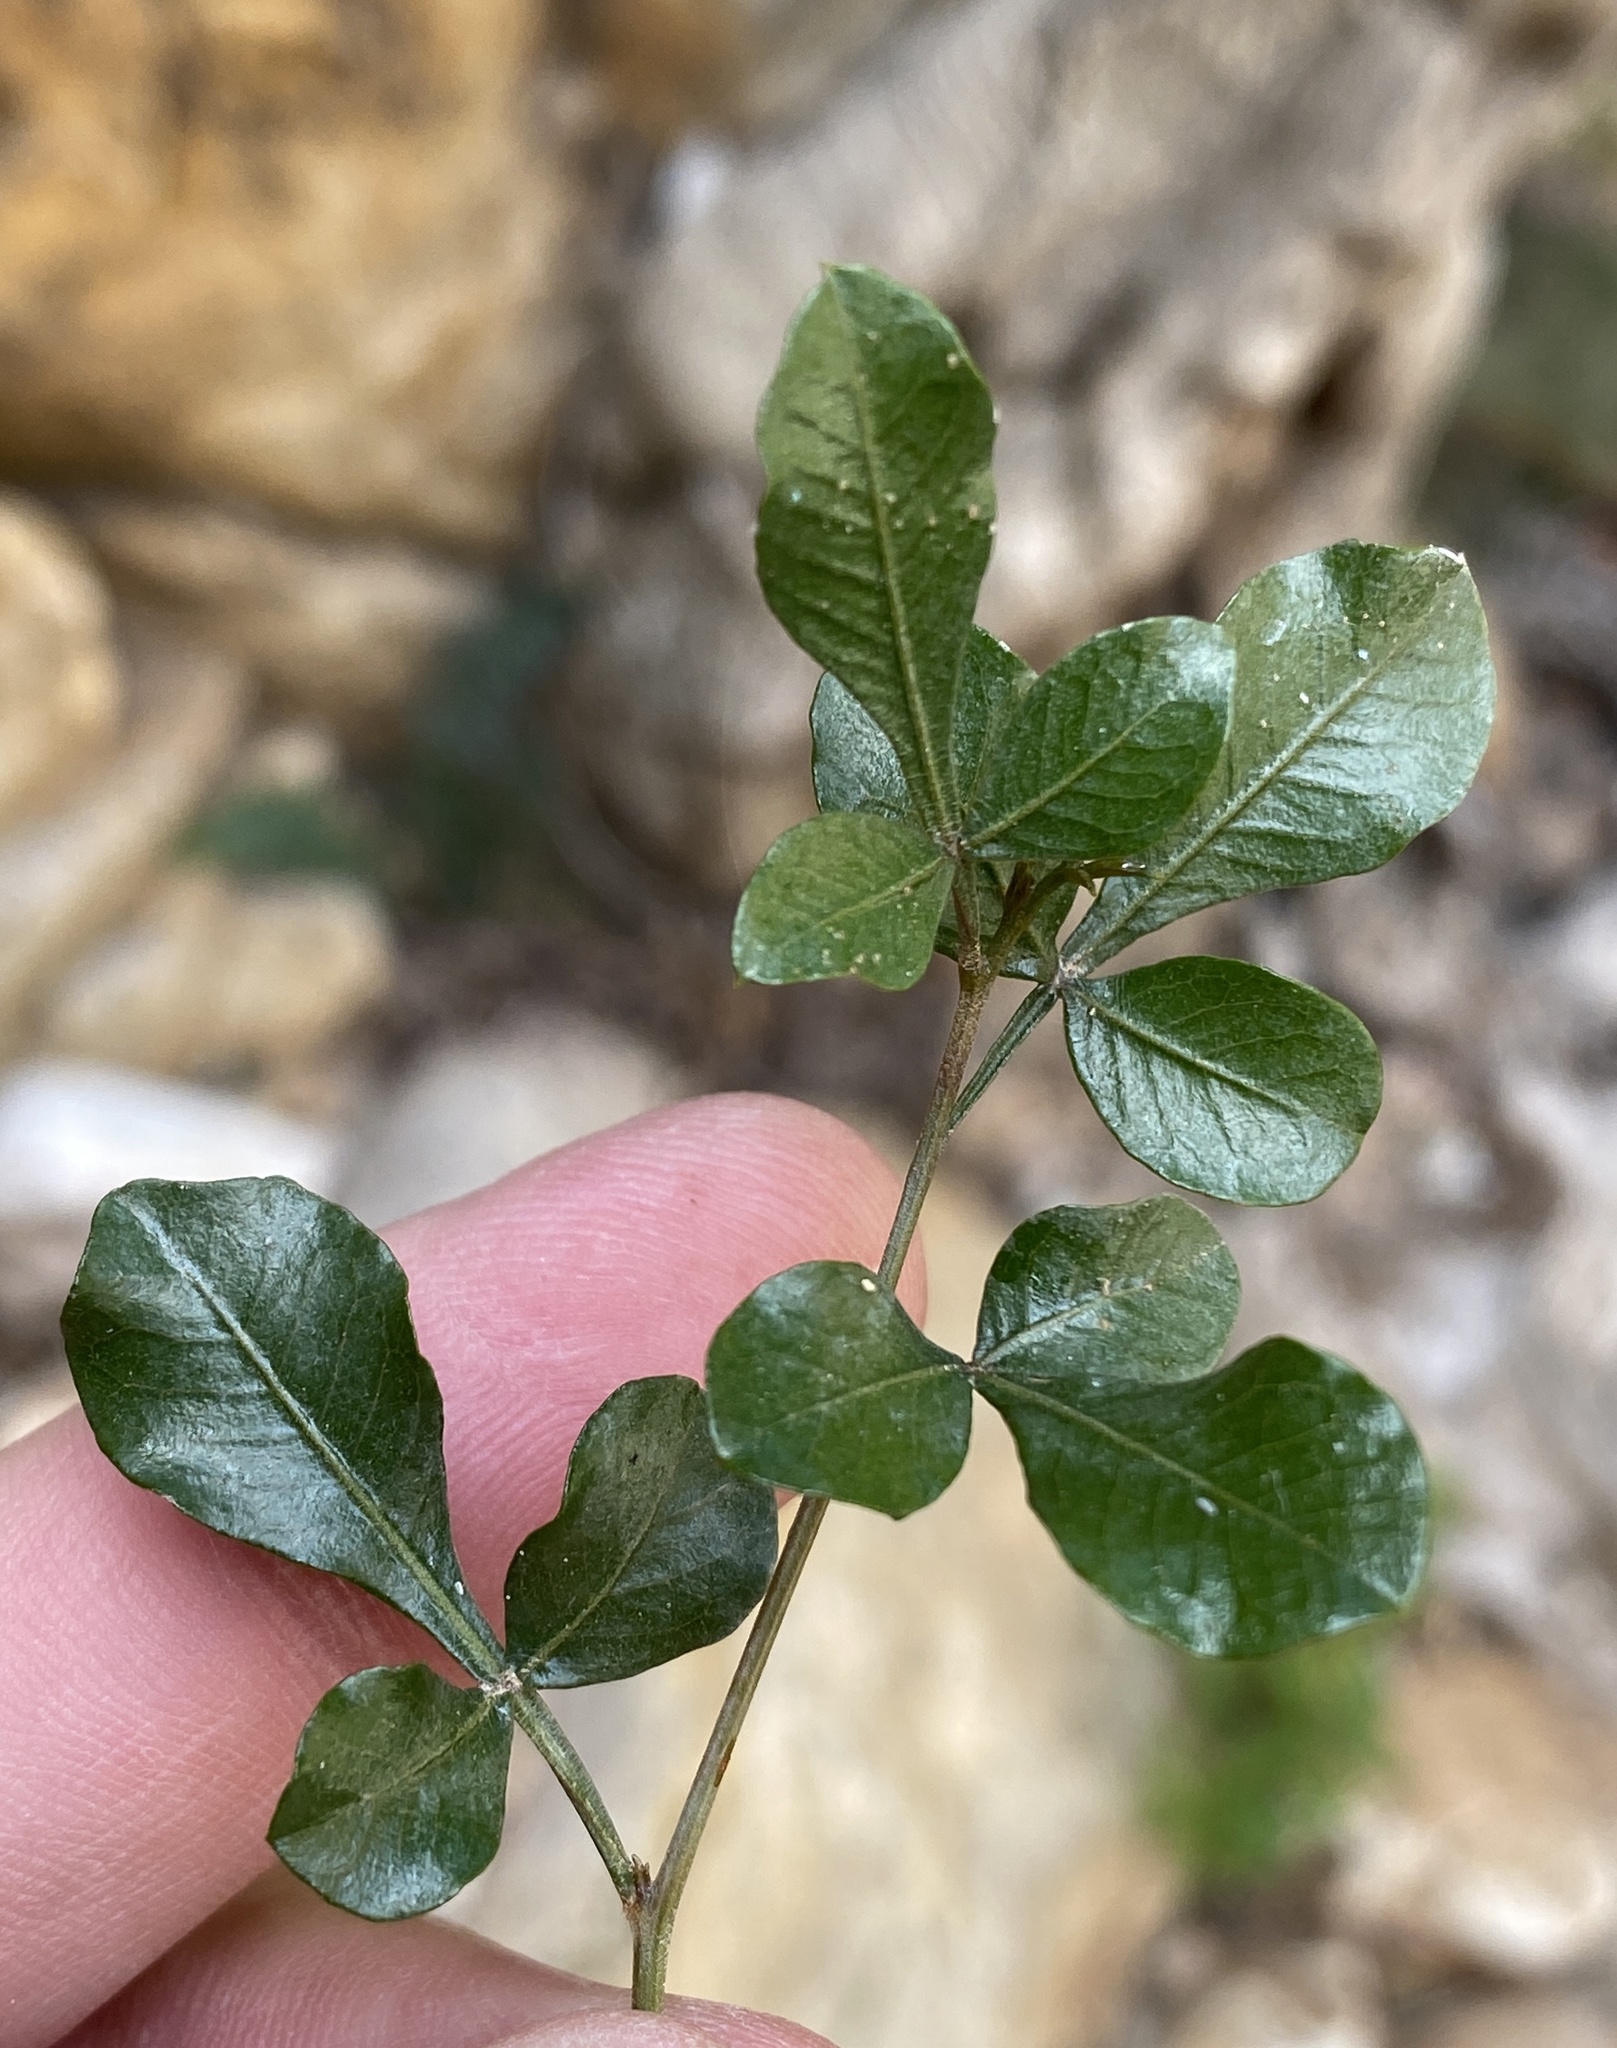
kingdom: Plantae
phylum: Tracheophyta
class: Magnoliopsida
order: Sapindales
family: Anacardiaceae
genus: Searsia
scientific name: Searsia pallens
